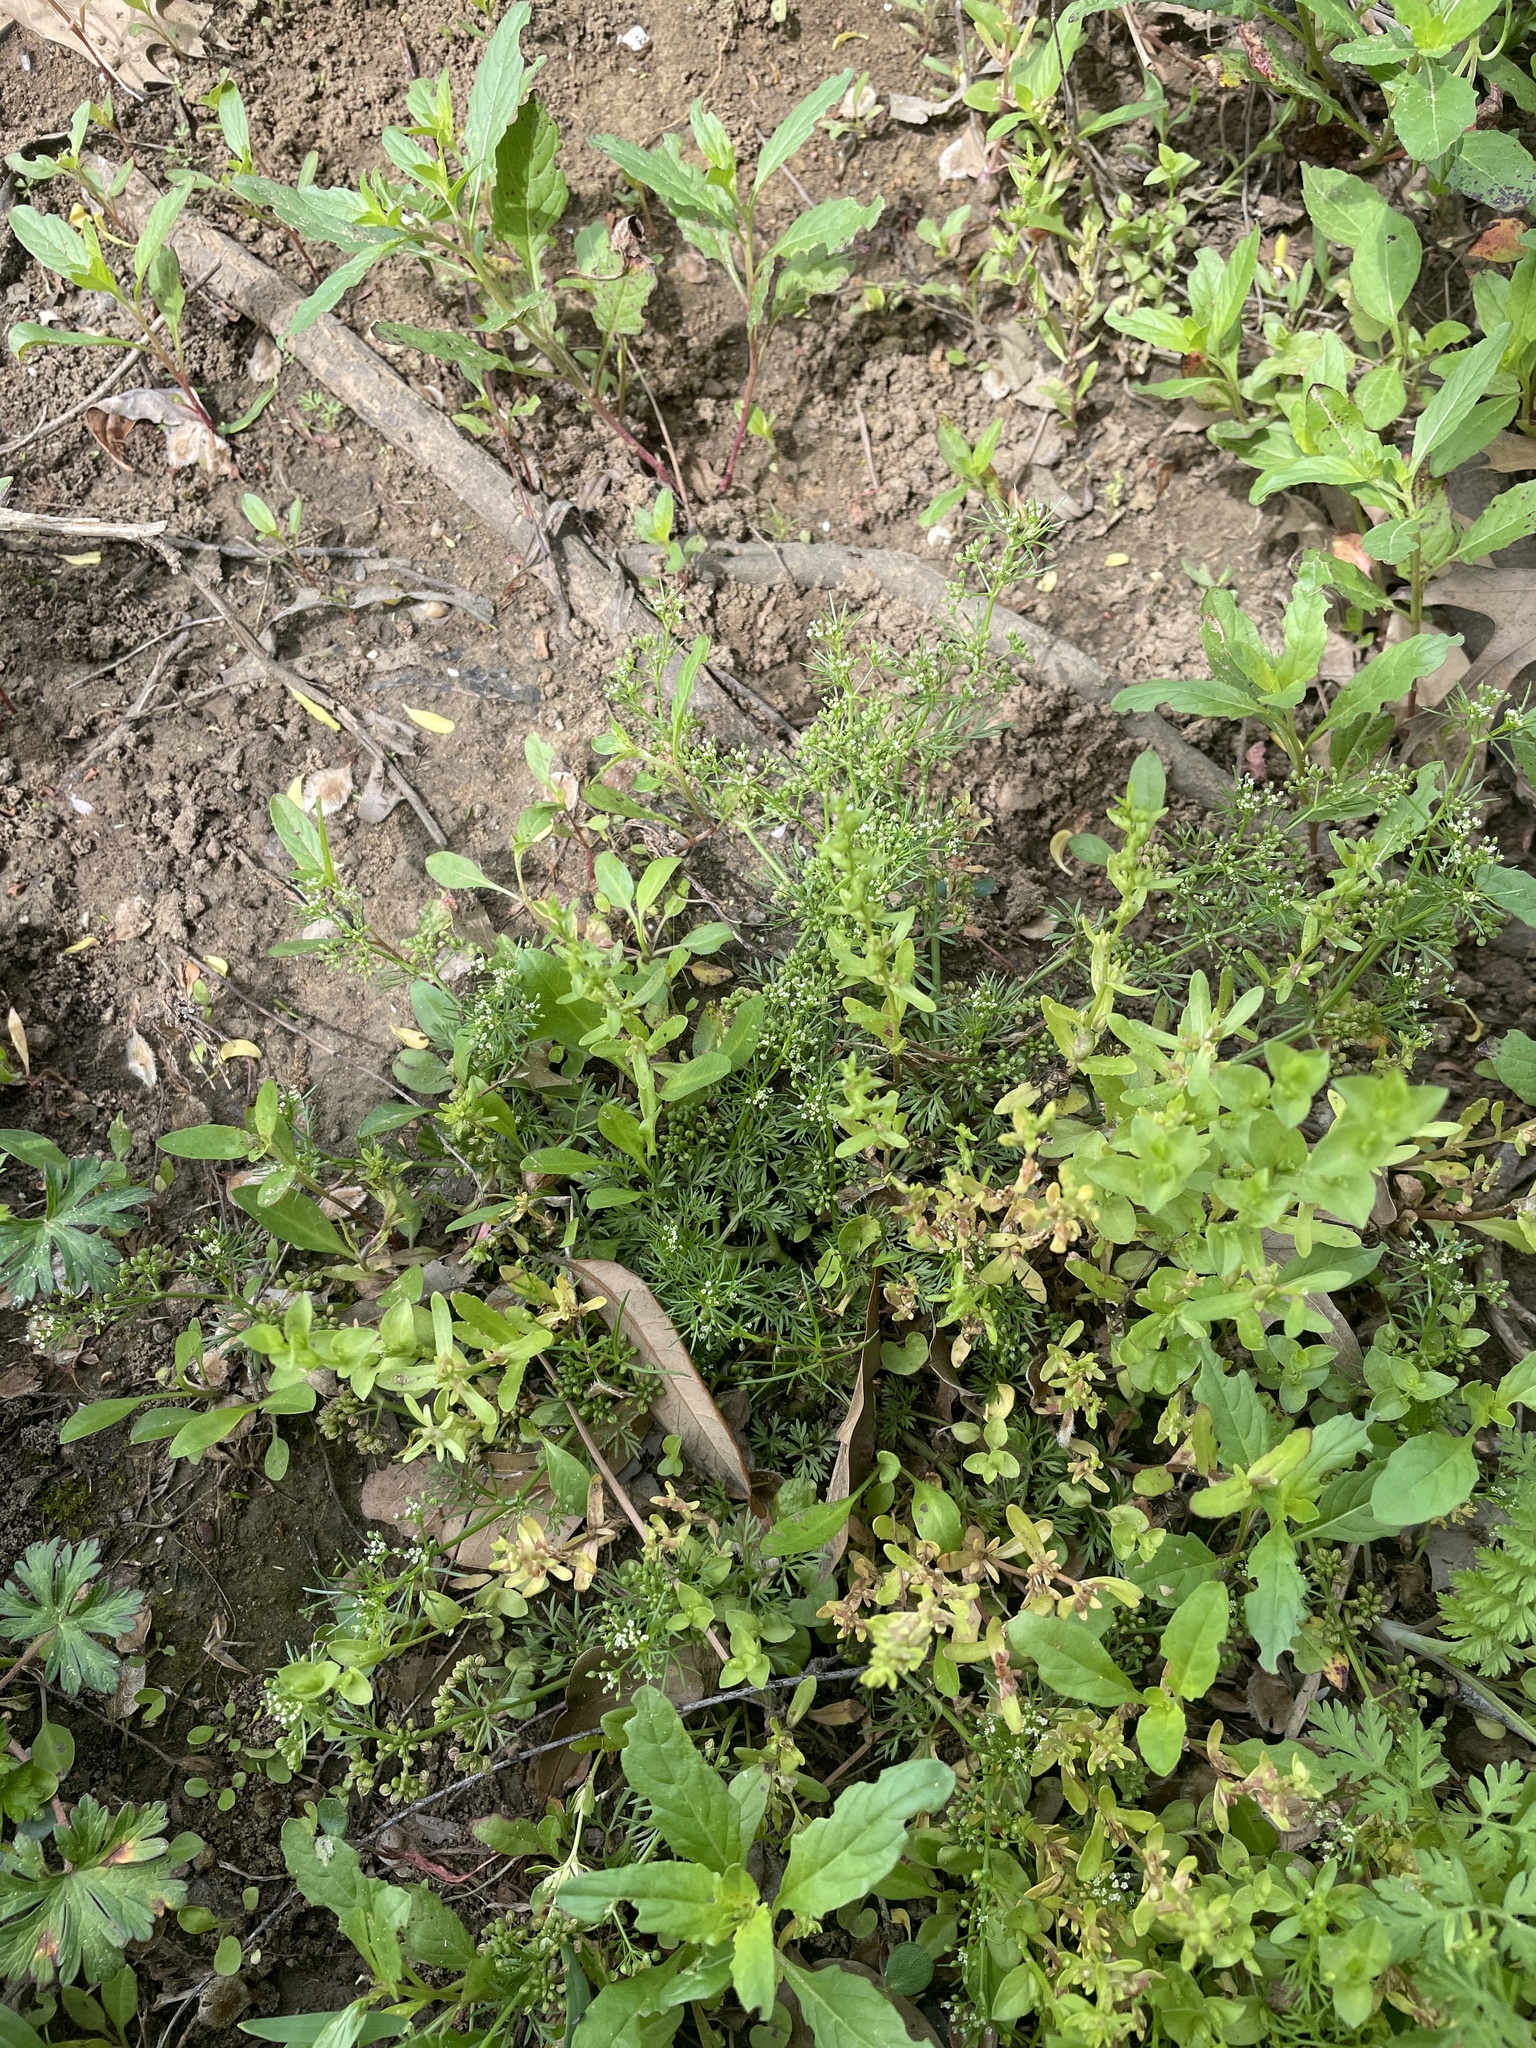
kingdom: Plantae
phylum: Tracheophyta
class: Magnoliopsida
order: Apiales
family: Apiaceae
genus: Cyclospermum
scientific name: Cyclospermum leptophyllum
